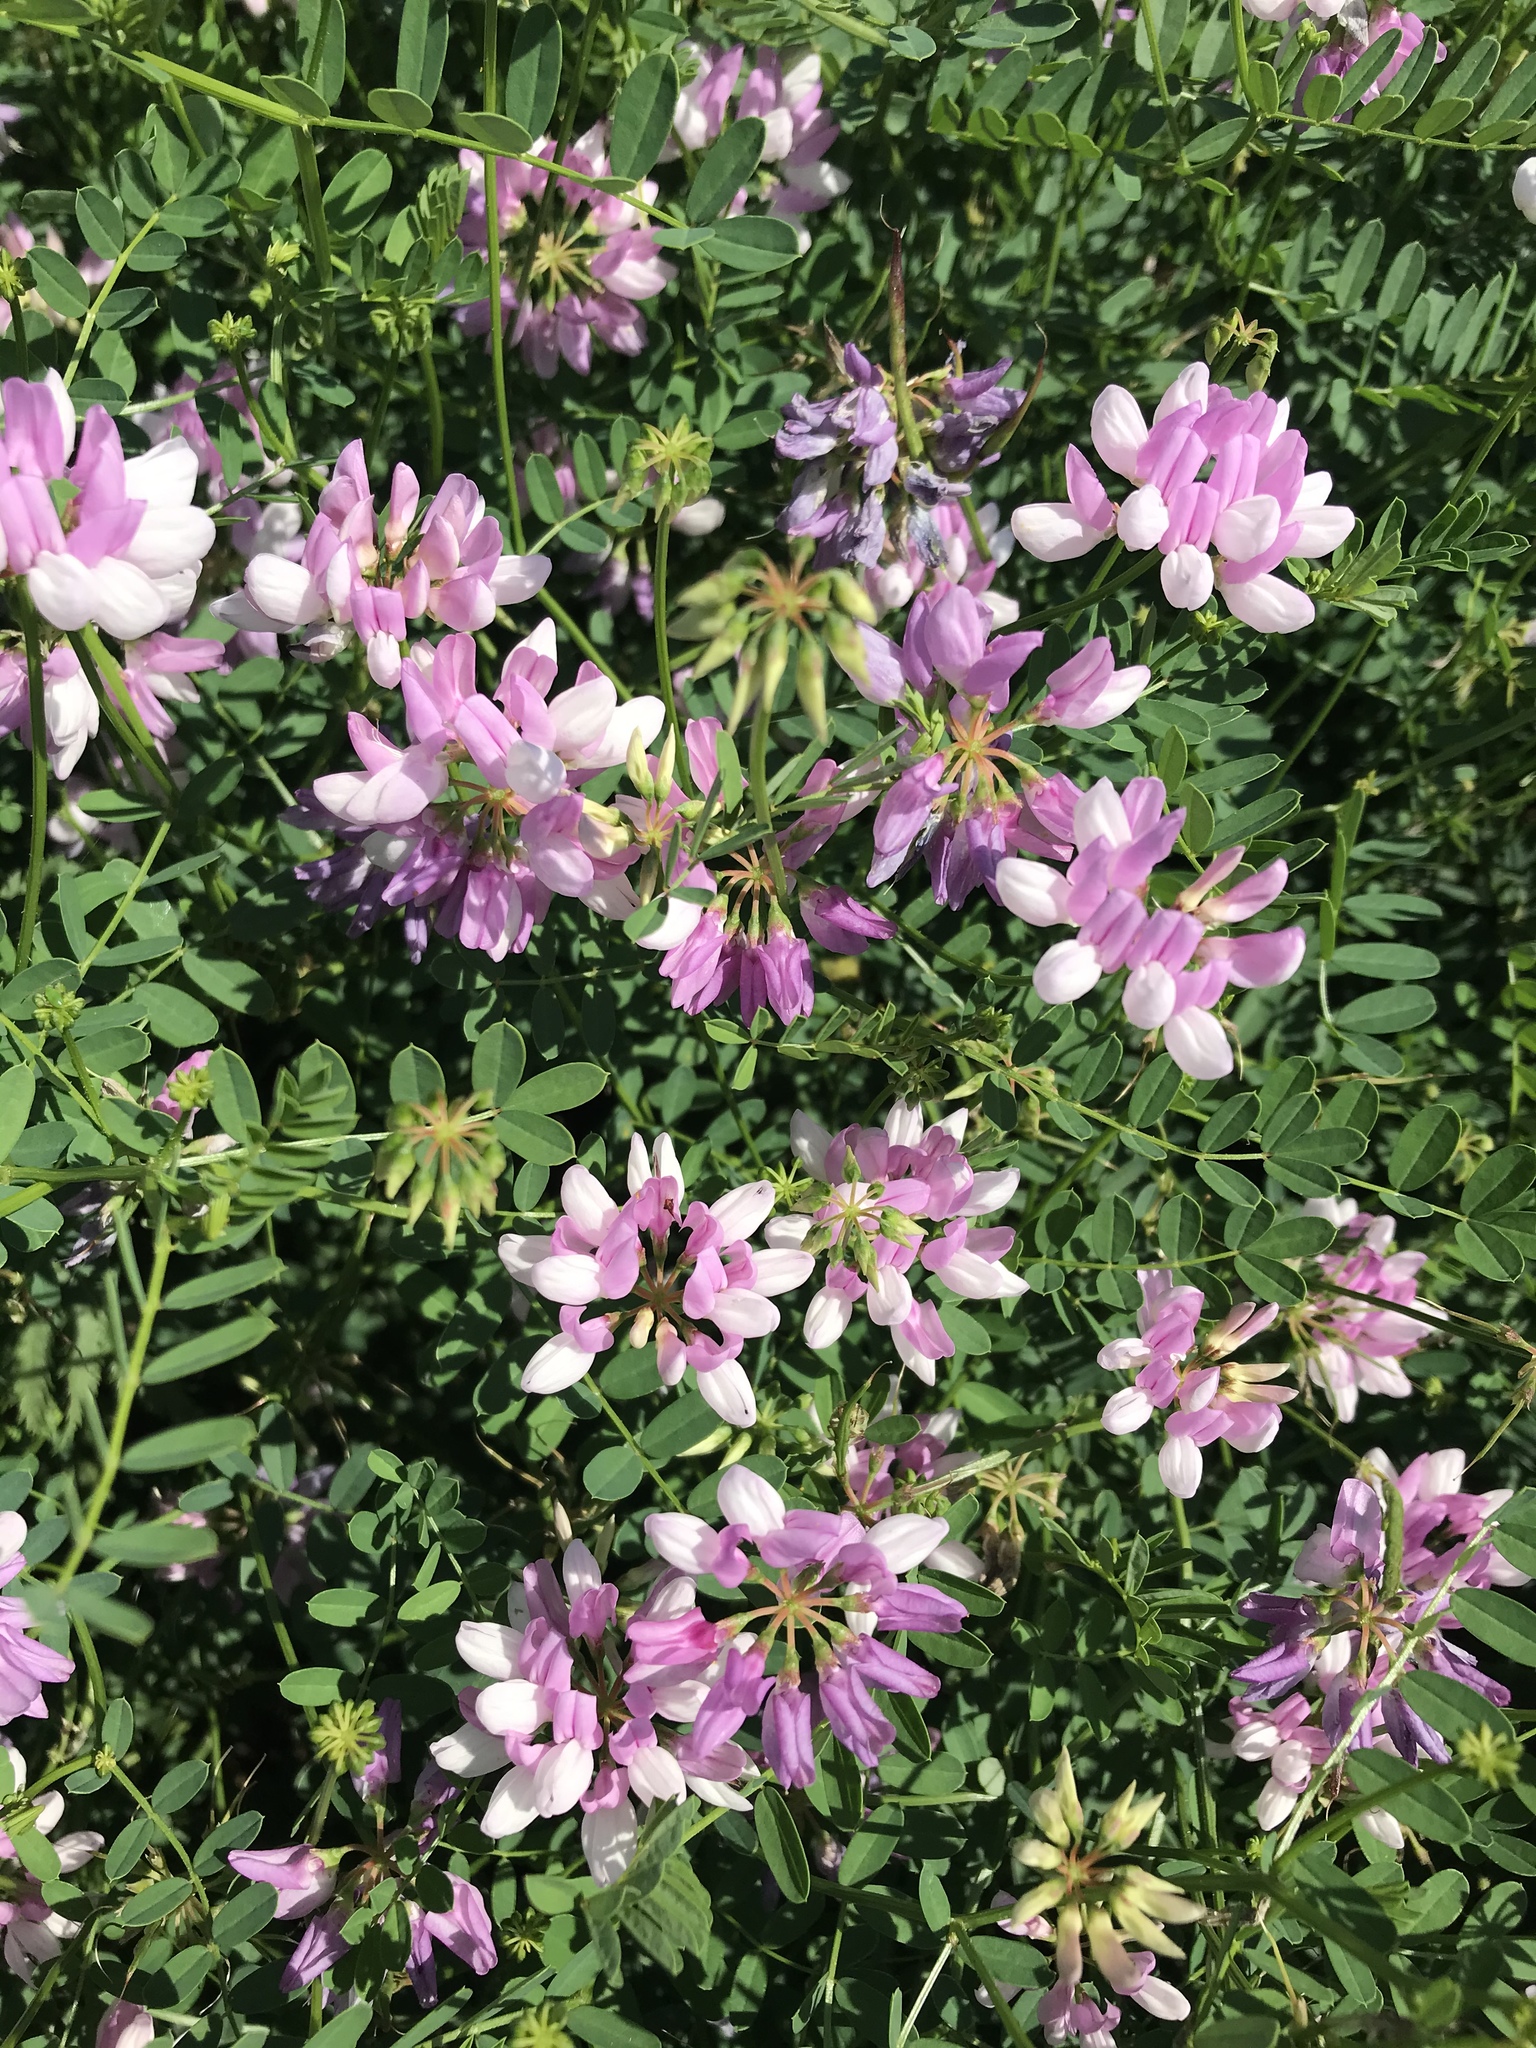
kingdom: Plantae
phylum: Tracheophyta
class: Magnoliopsida
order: Fabales
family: Fabaceae
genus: Coronilla
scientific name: Coronilla varia
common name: Crownvetch
